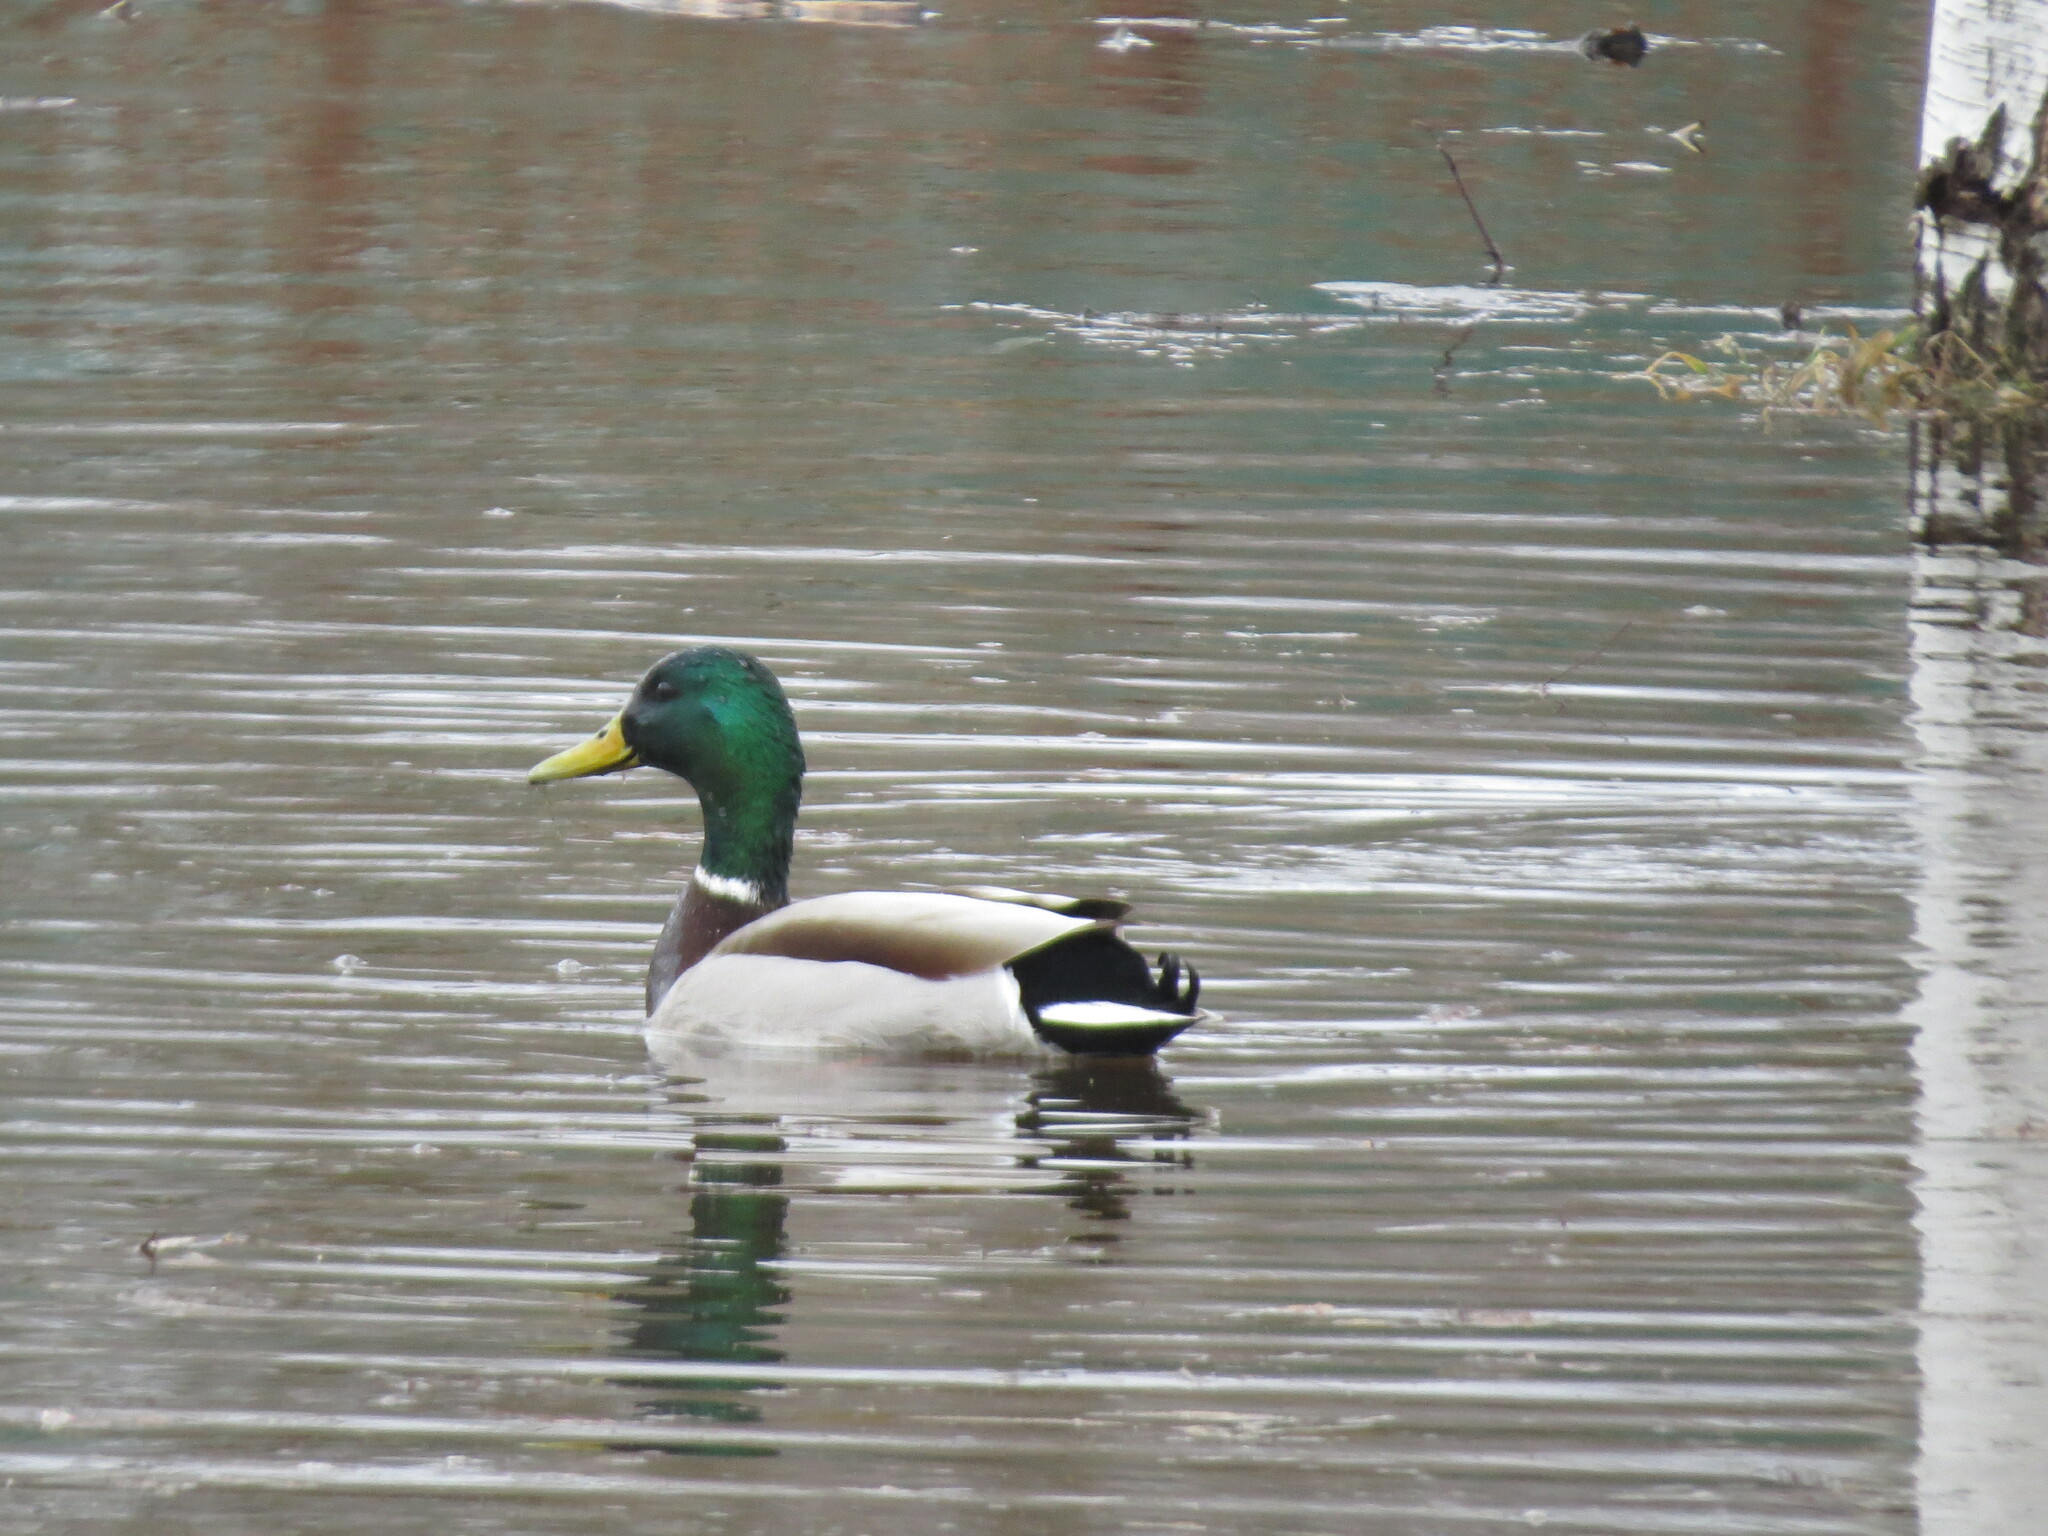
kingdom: Animalia
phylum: Chordata
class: Aves
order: Anseriformes
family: Anatidae
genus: Anas
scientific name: Anas platyrhynchos
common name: Mallard
